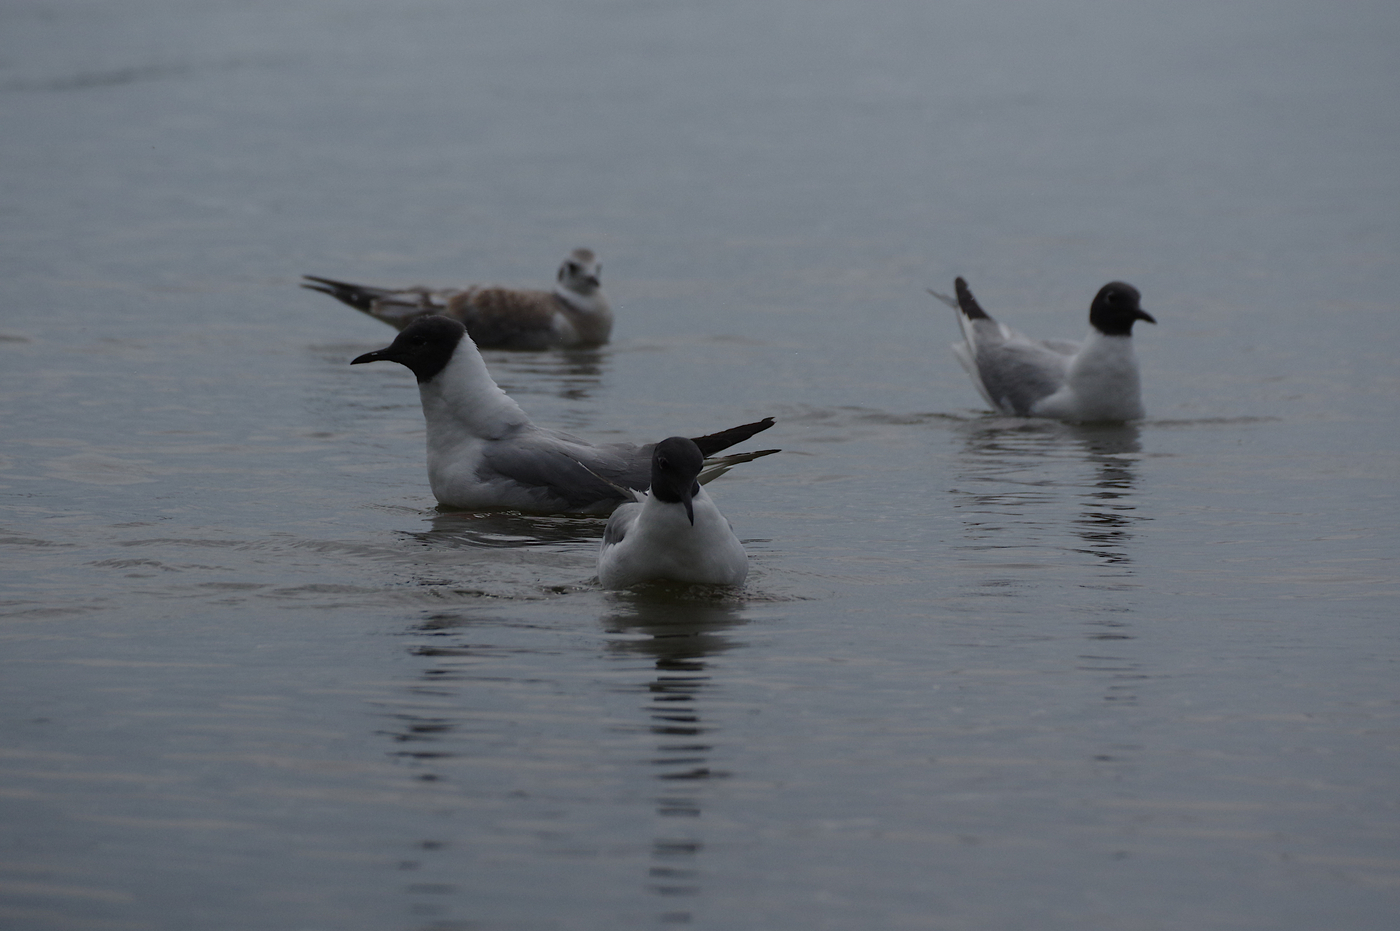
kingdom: Animalia
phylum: Chordata
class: Aves
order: Charadriiformes
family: Laridae
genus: Chroicocephalus
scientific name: Chroicocephalus philadelphia
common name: Bonaparte's gull
